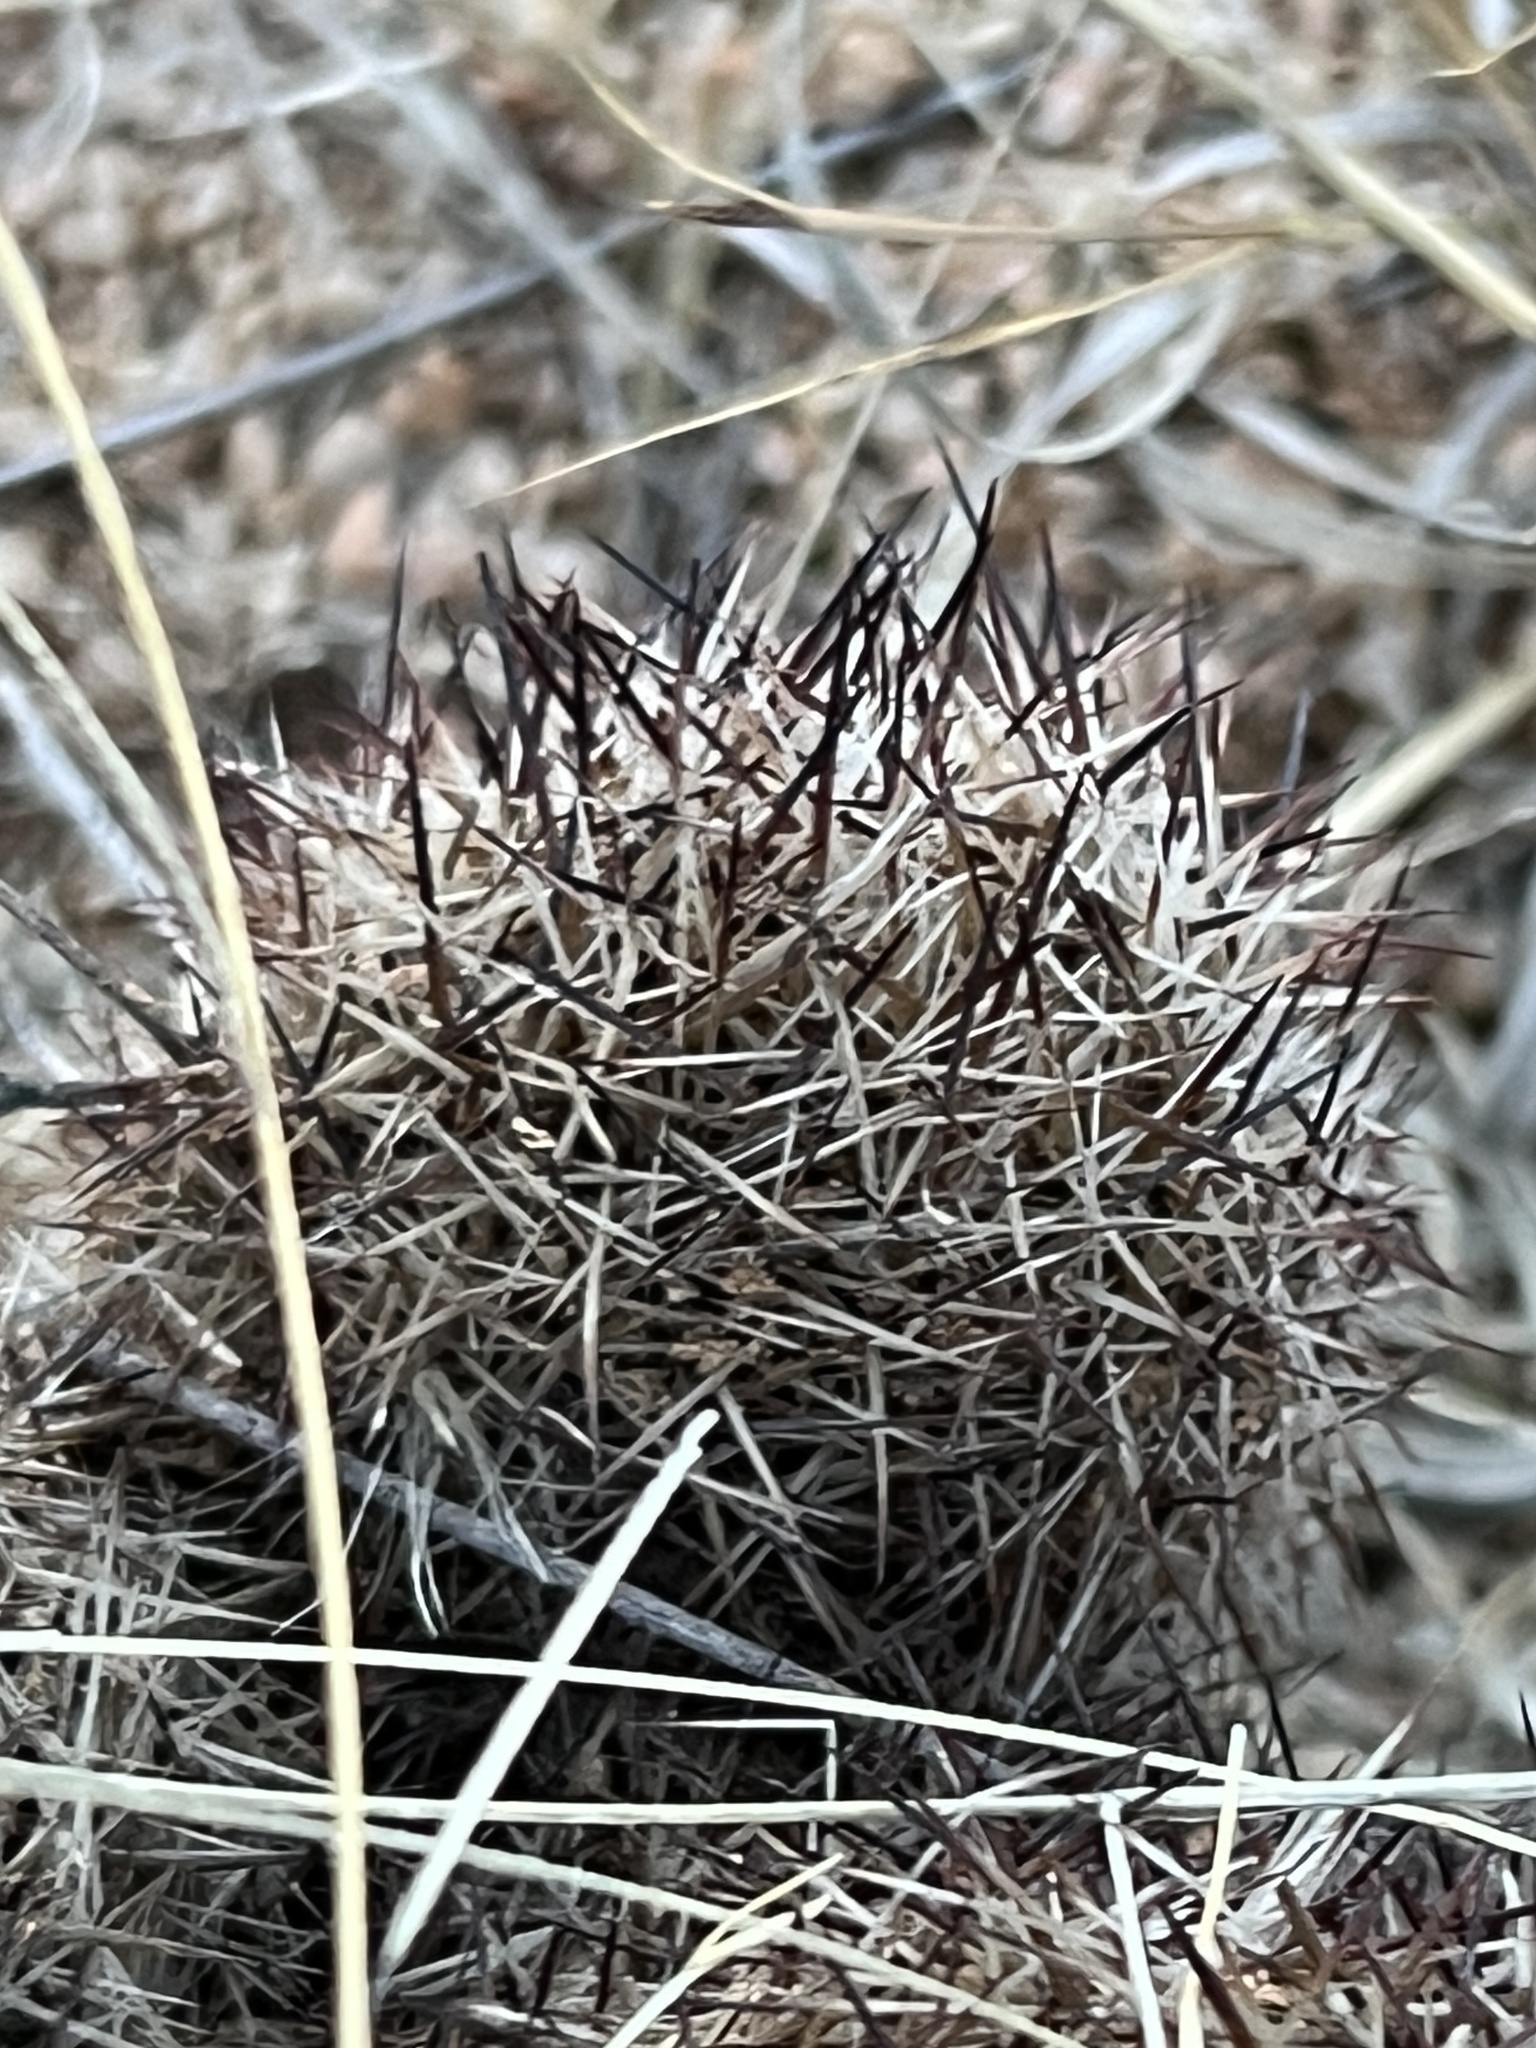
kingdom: Plantae
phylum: Tracheophyta
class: Magnoliopsida
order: Caryophyllales
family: Cactaceae
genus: Pelecyphora
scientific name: Pelecyphora vivipara
